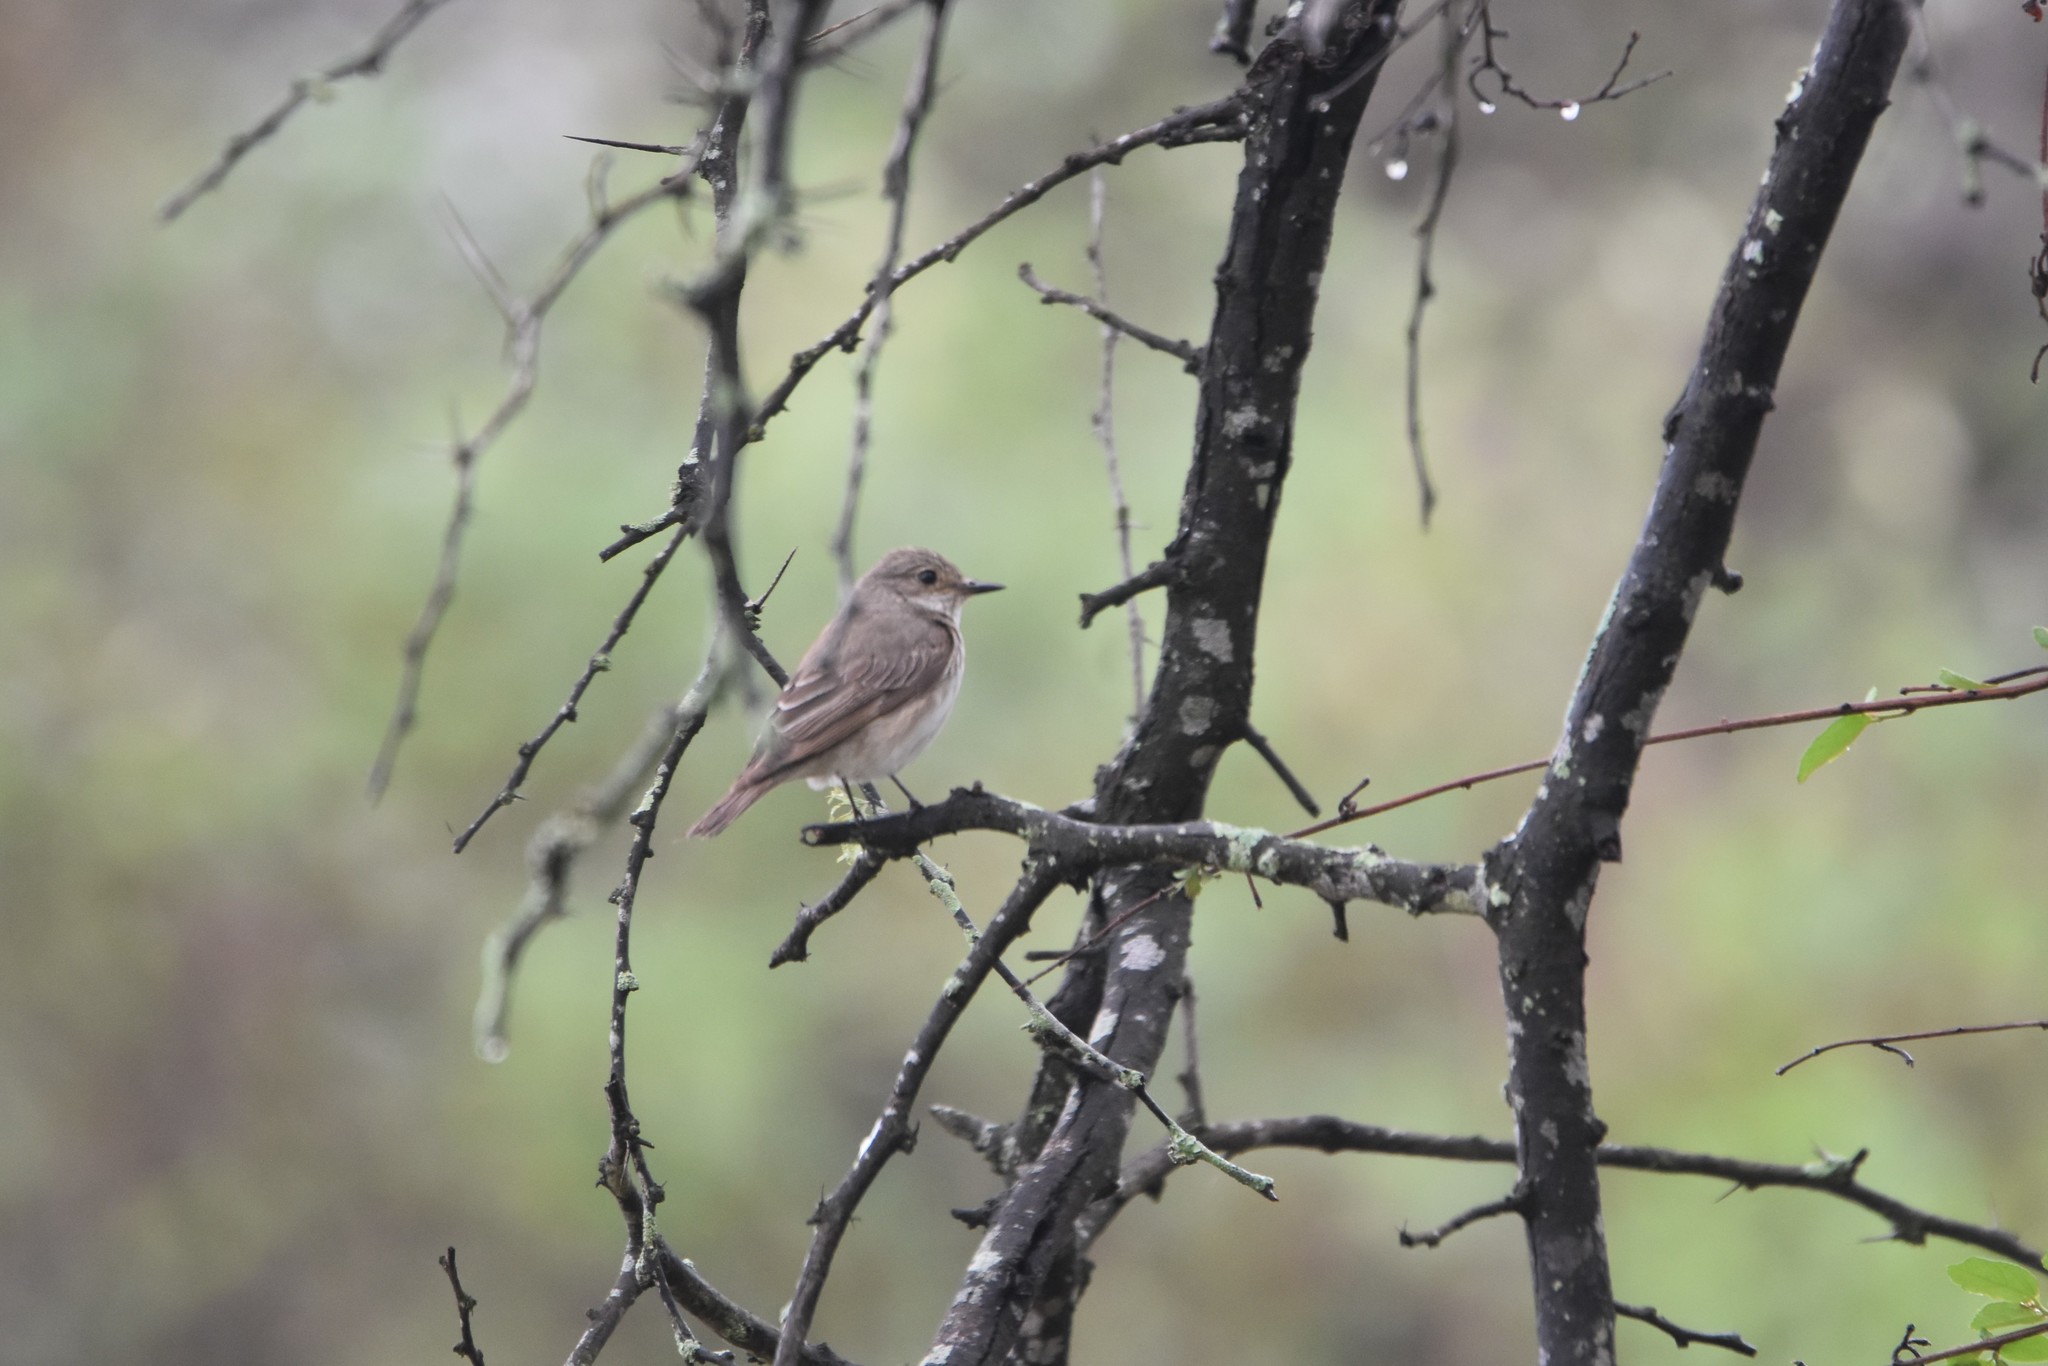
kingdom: Animalia
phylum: Chordata
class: Aves
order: Passeriformes
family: Muscicapidae
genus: Muscicapa
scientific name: Muscicapa striata
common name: Spotted flycatcher
